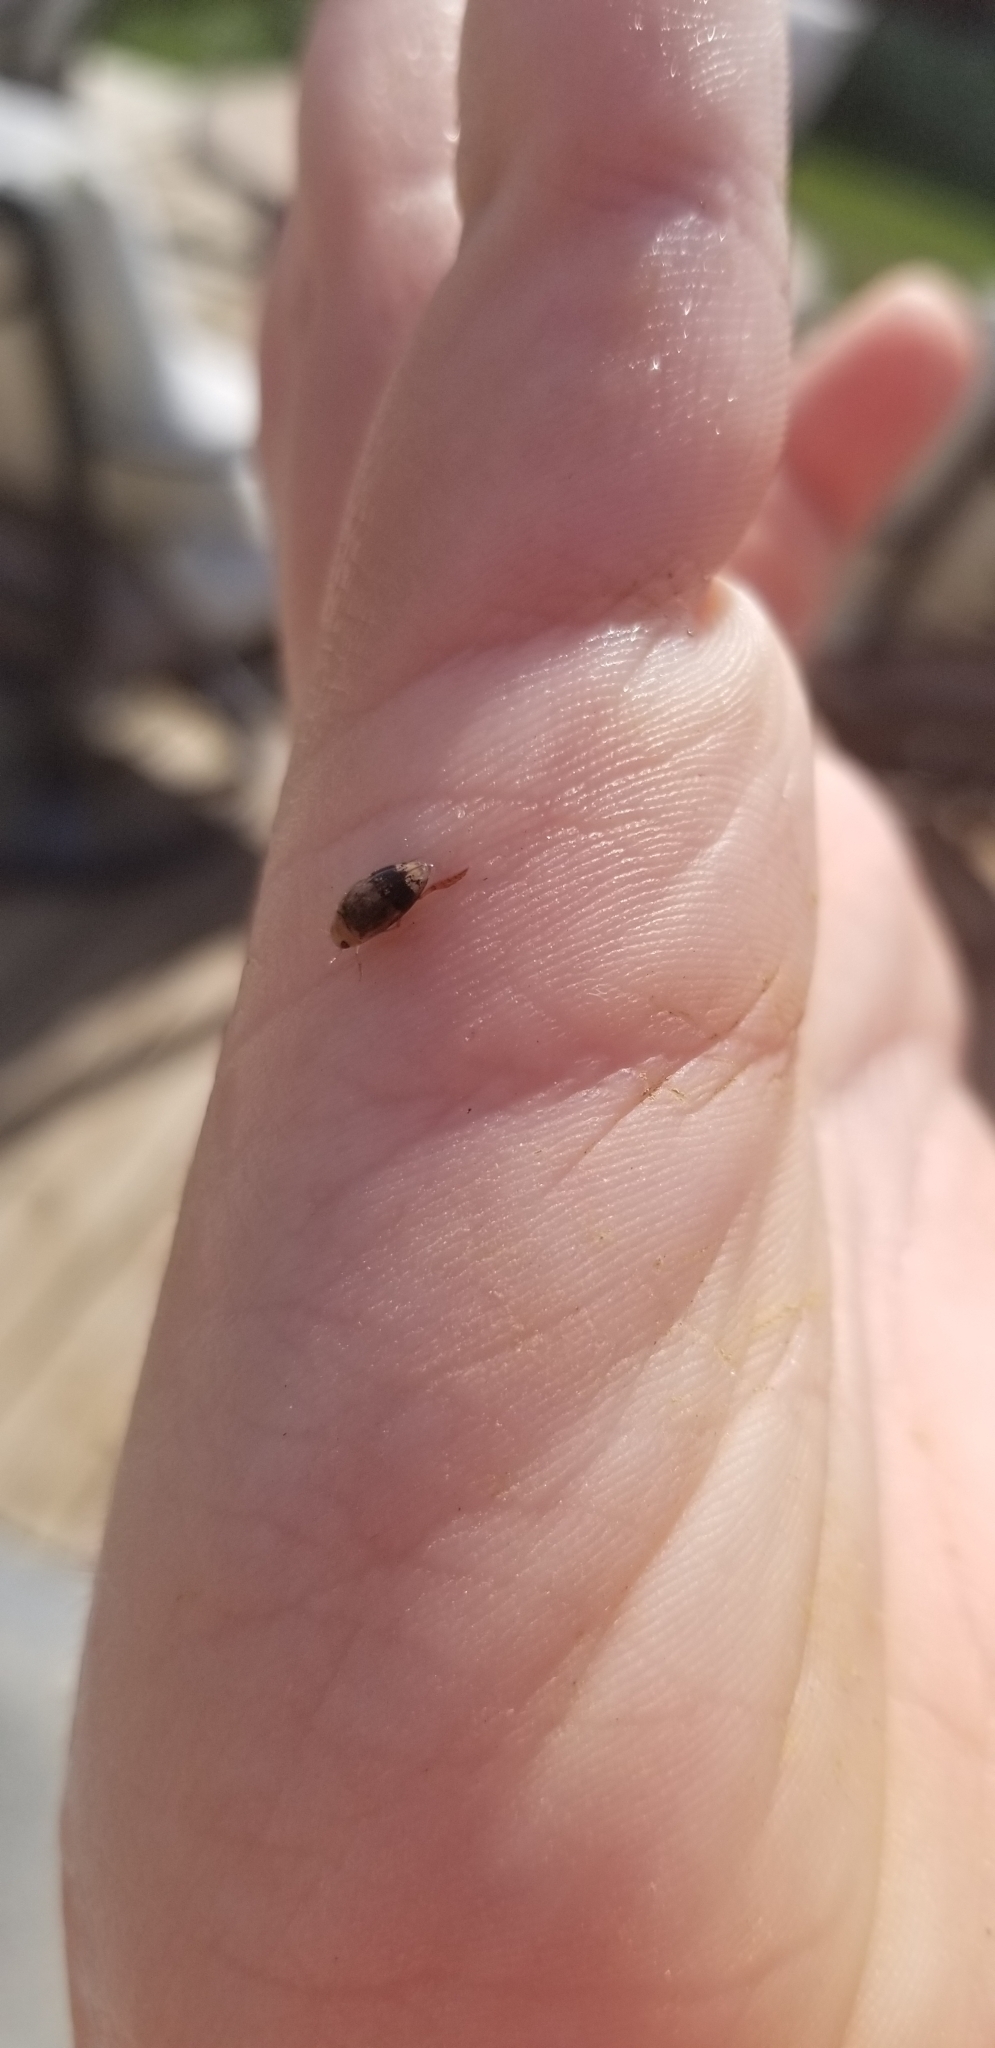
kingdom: Animalia
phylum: Arthropoda
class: Insecta
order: Coleoptera
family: Dytiscidae
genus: Laccophilus
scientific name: Laccophilus fasciatus
